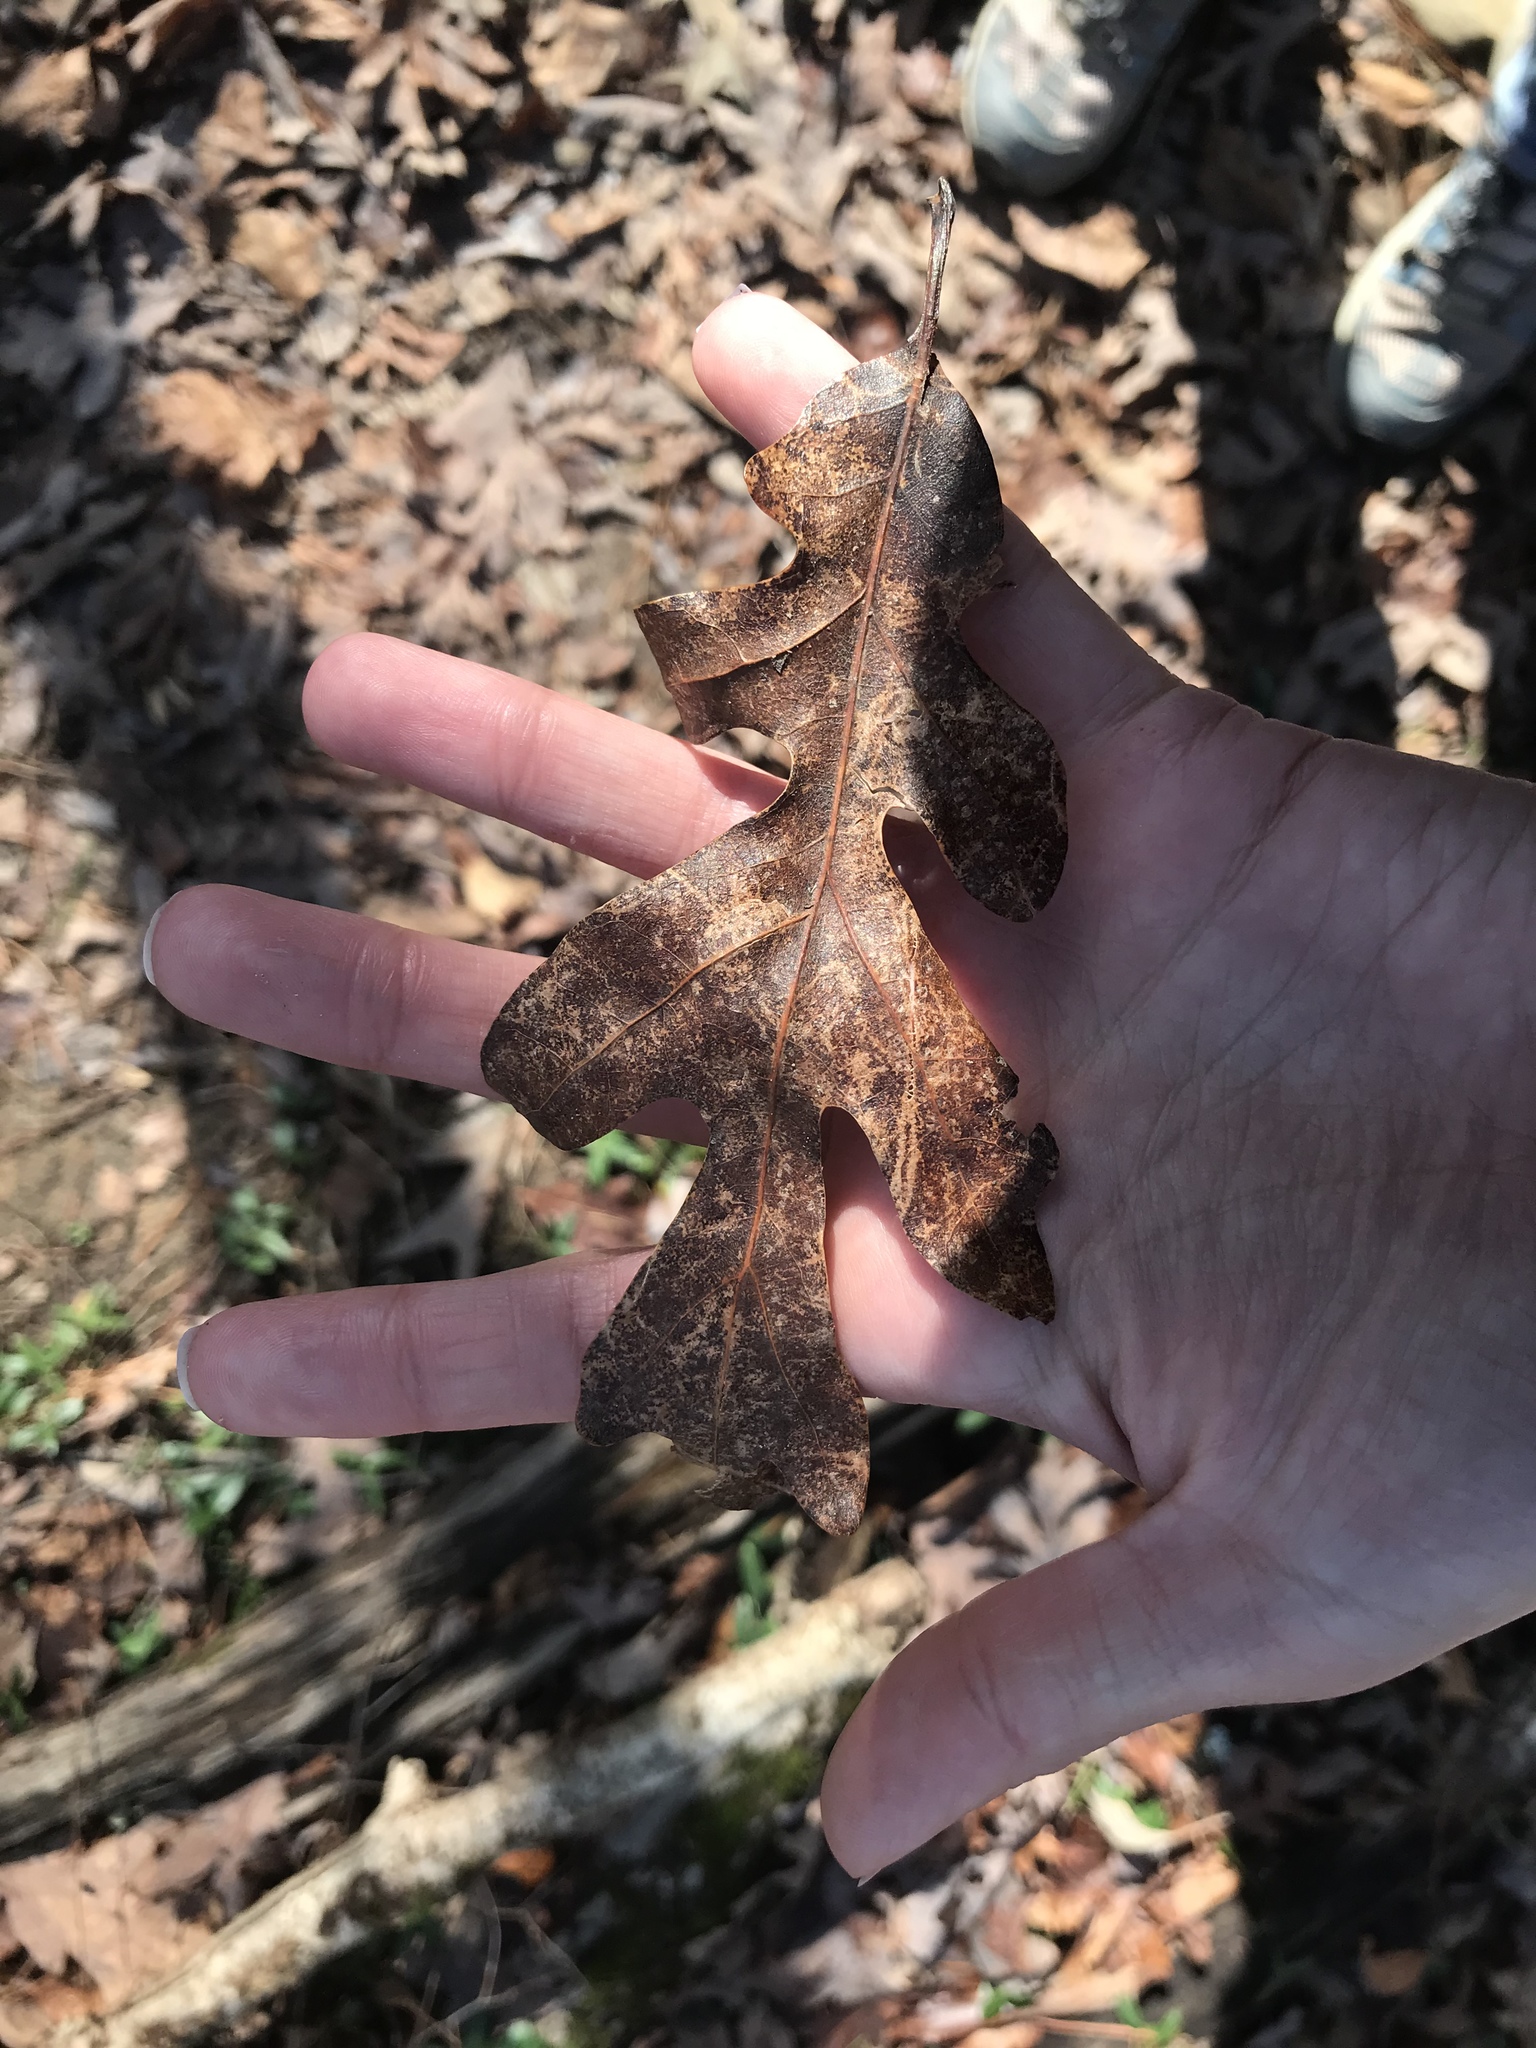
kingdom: Plantae
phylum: Tracheophyta
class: Magnoliopsida
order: Fagales
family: Fagaceae
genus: Quercus
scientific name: Quercus alba
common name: White oak
